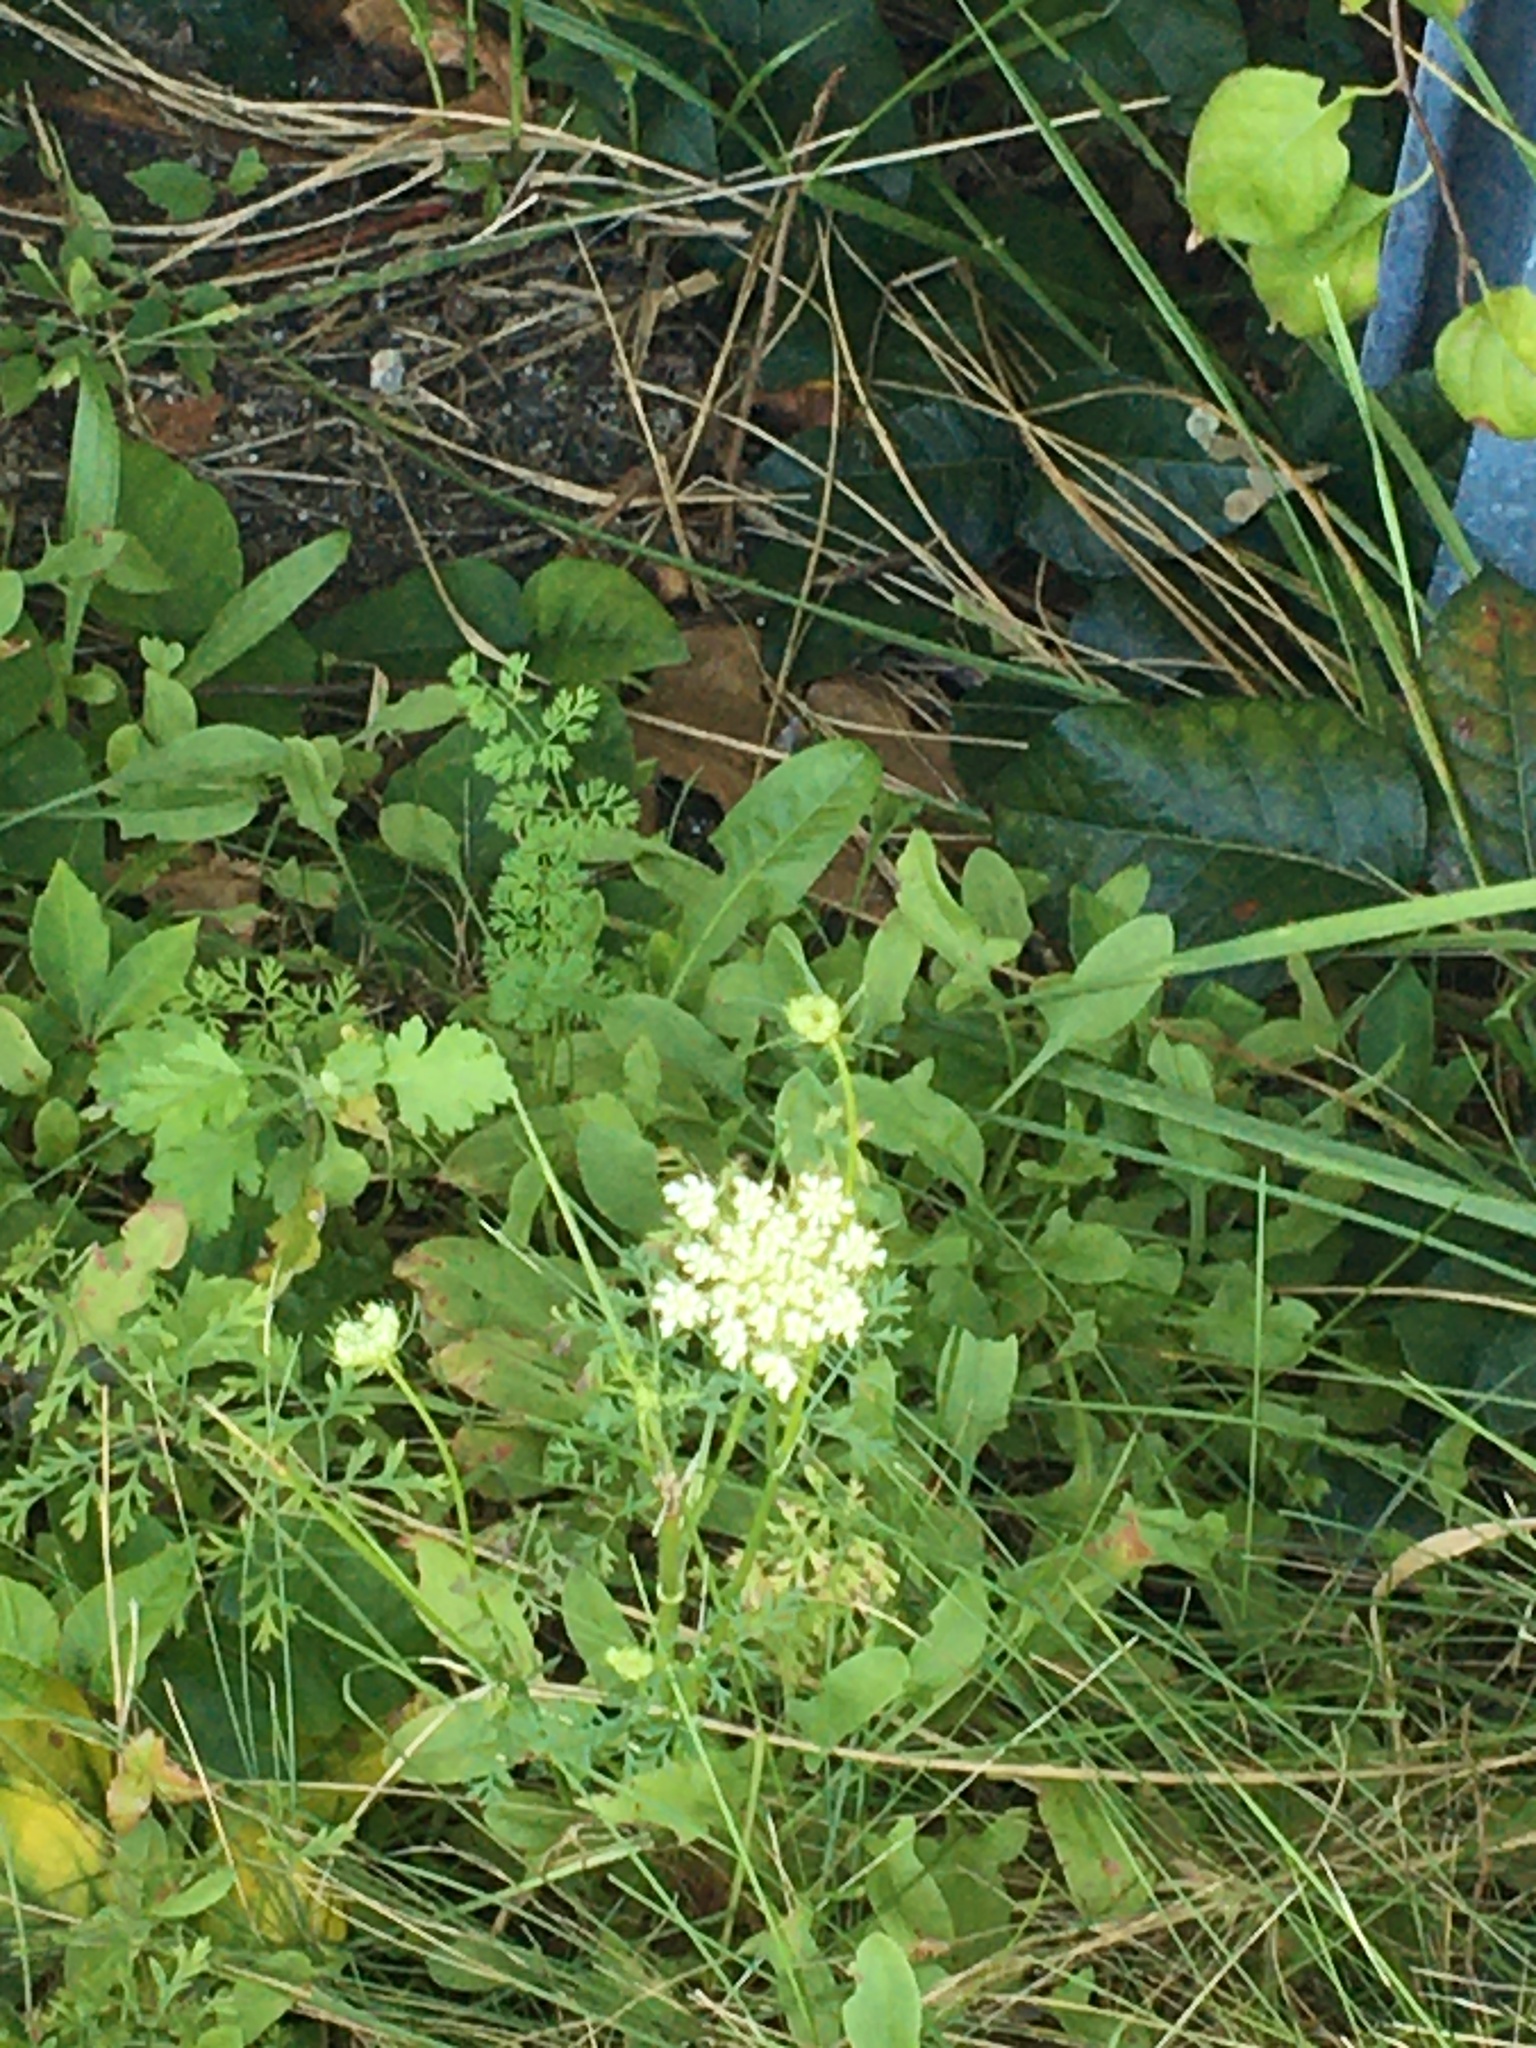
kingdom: Plantae
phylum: Tracheophyta
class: Magnoliopsida
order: Apiales
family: Apiaceae
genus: Daucus
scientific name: Daucus carota
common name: Wild carrot
